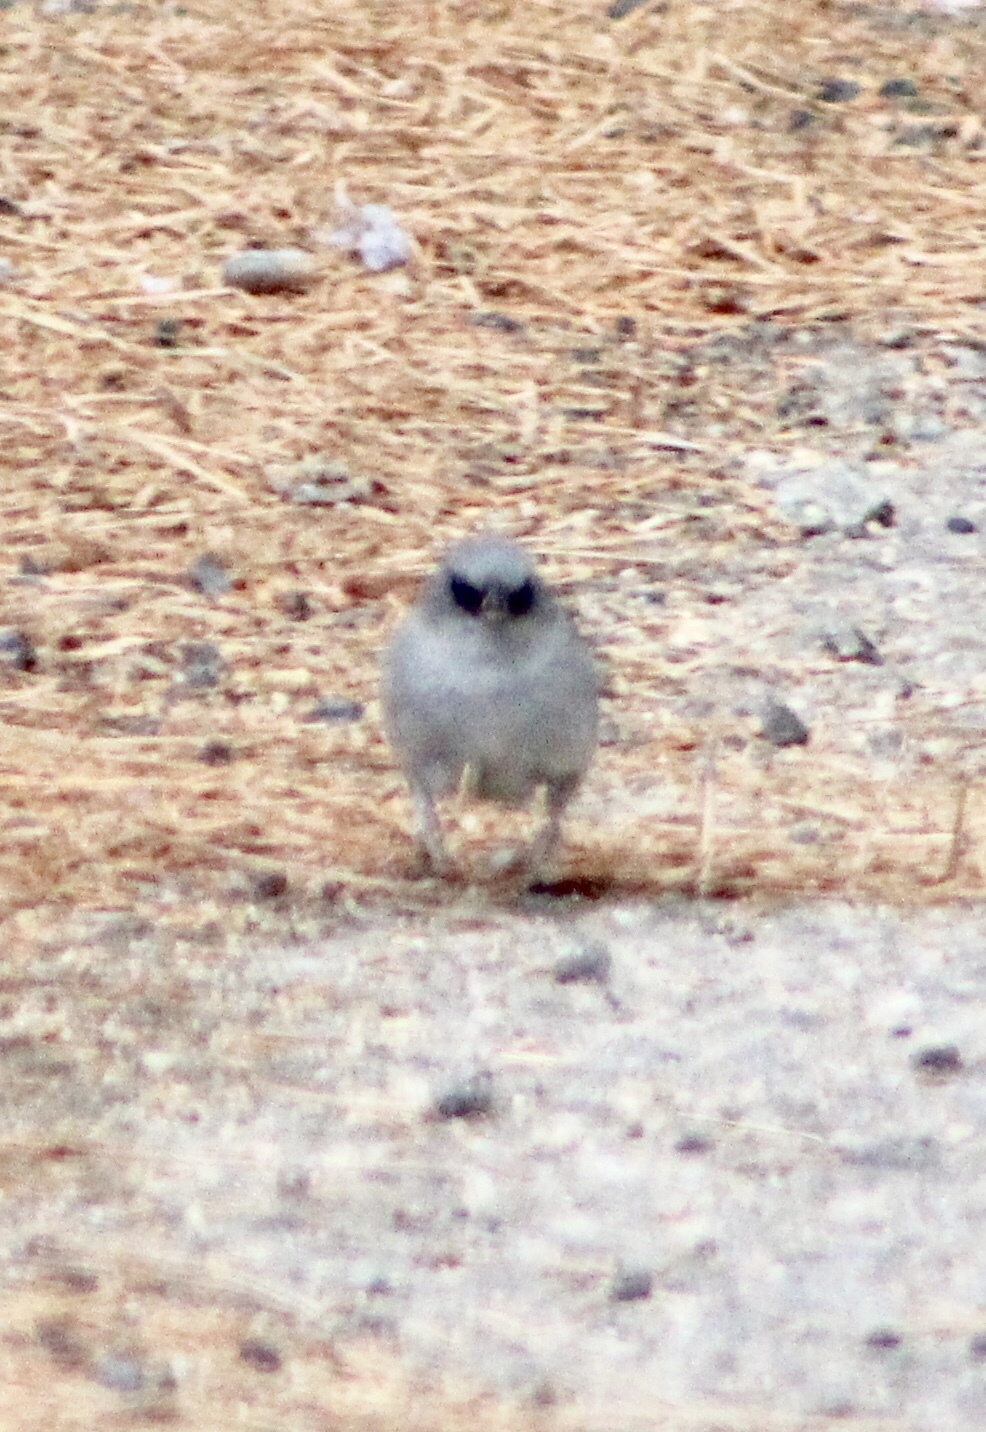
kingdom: Animalia
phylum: Chordata
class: Aves
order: Passeriformes
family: Passerellidae
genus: Junco
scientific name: Junco hyemalis
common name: Dark-eyed junco
